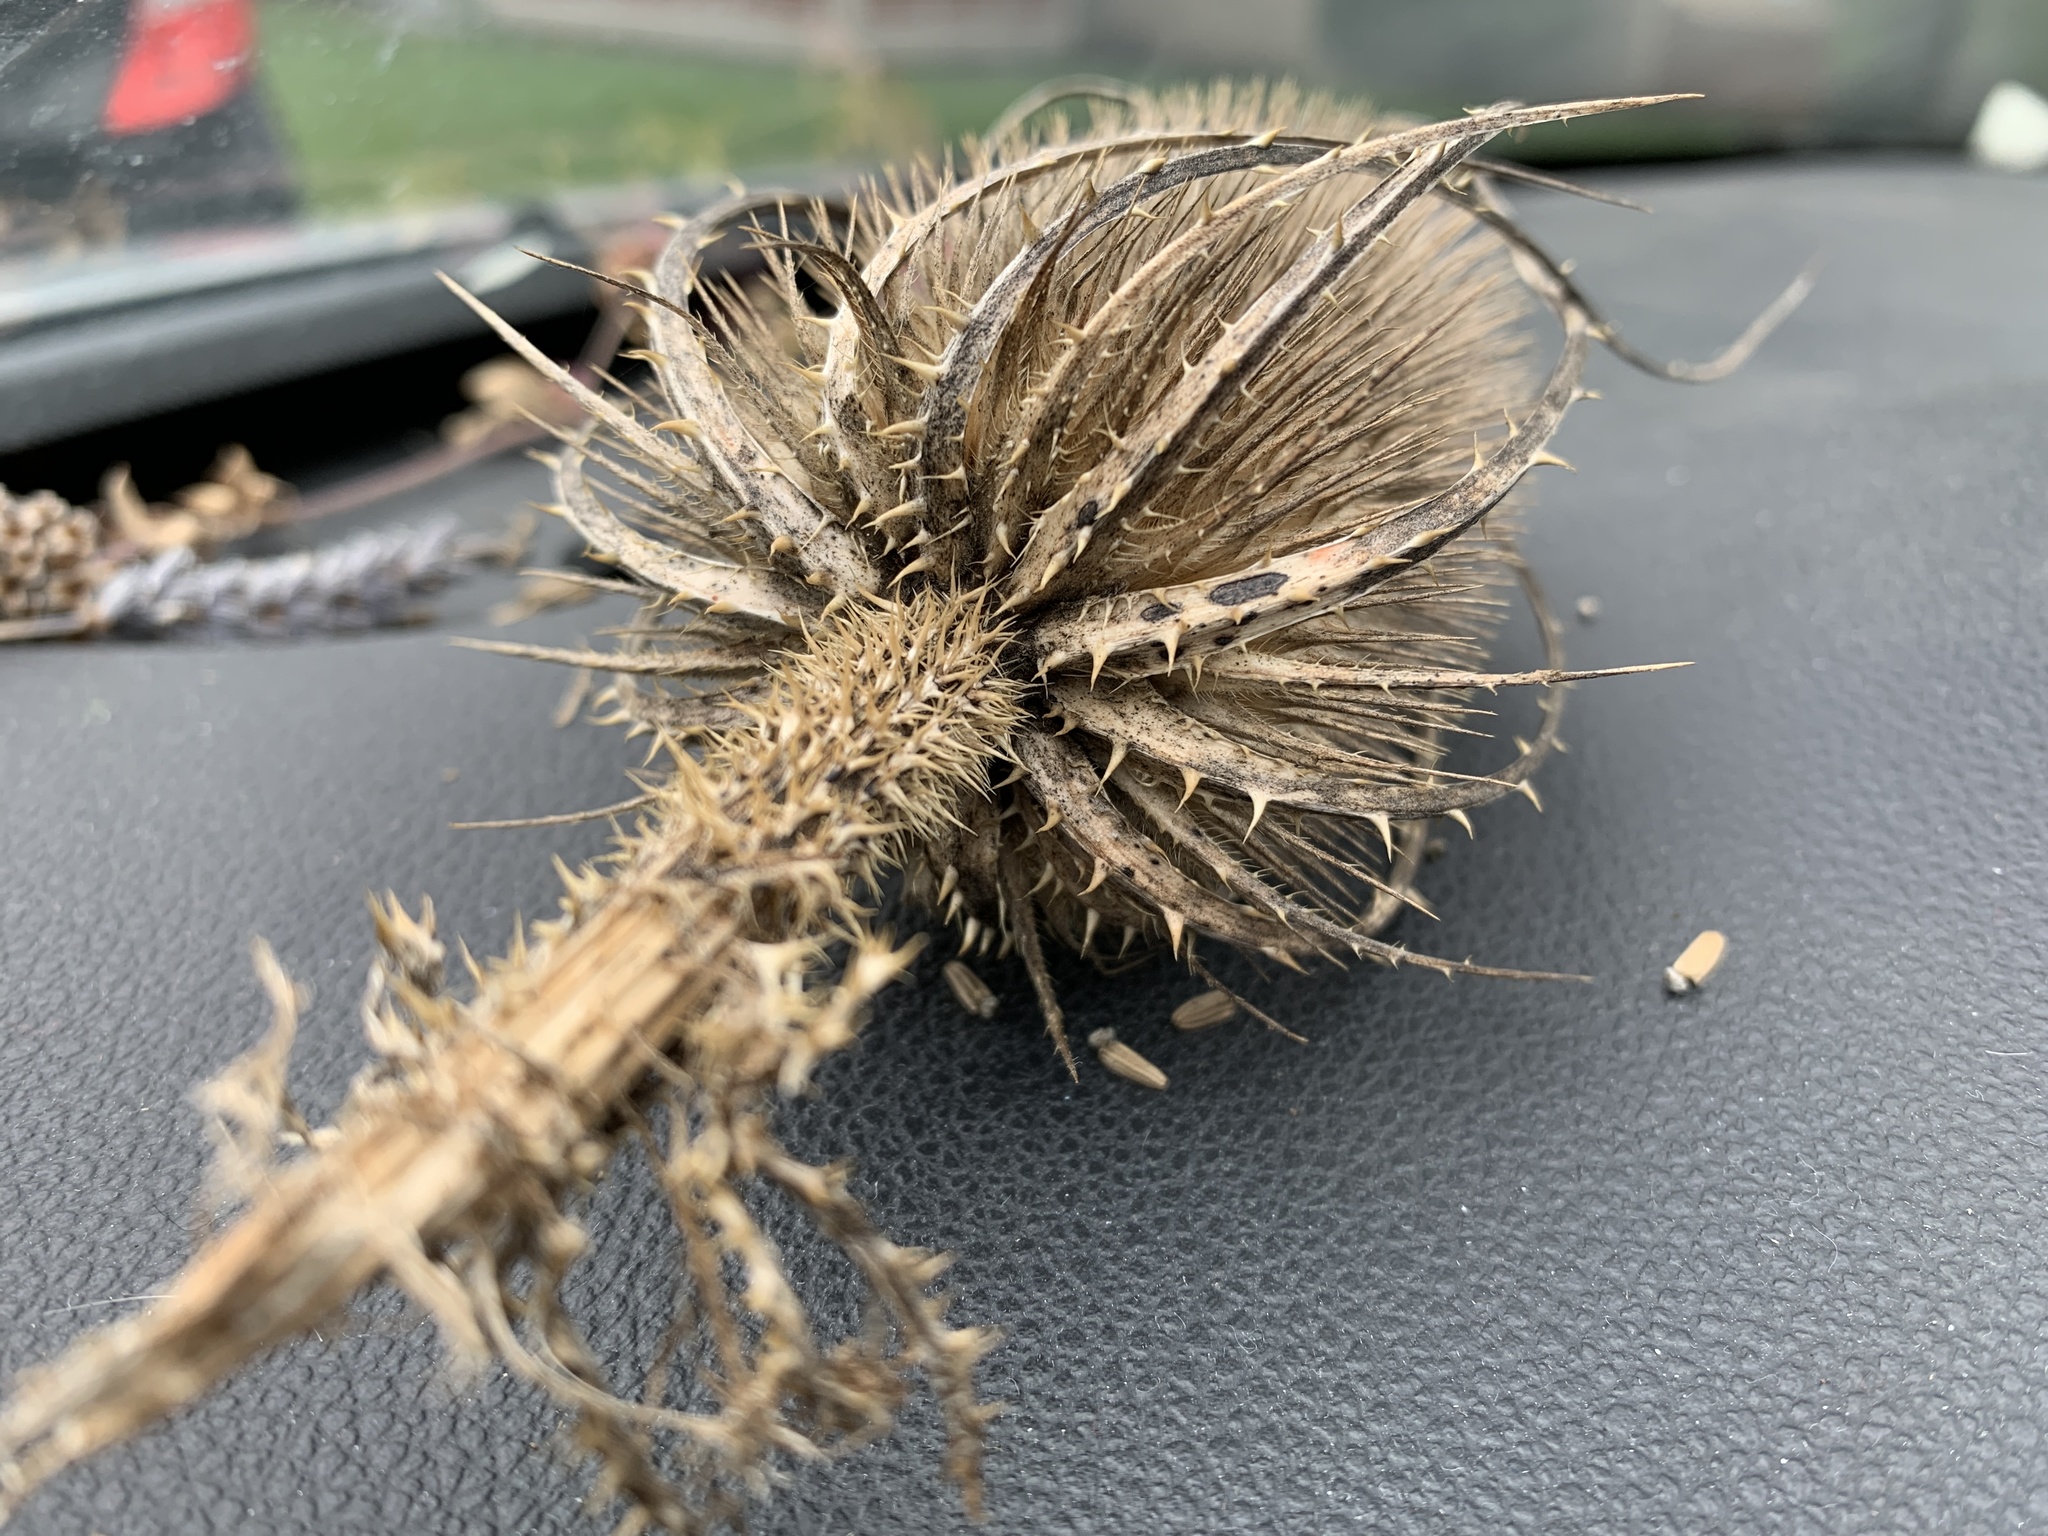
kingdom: Plantae
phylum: Tracheophyta
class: Magnoliopsida
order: Dipsacales
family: Caprifoliaceae
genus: Dipsacus
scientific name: Dipsacus fullonum
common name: Teasel
